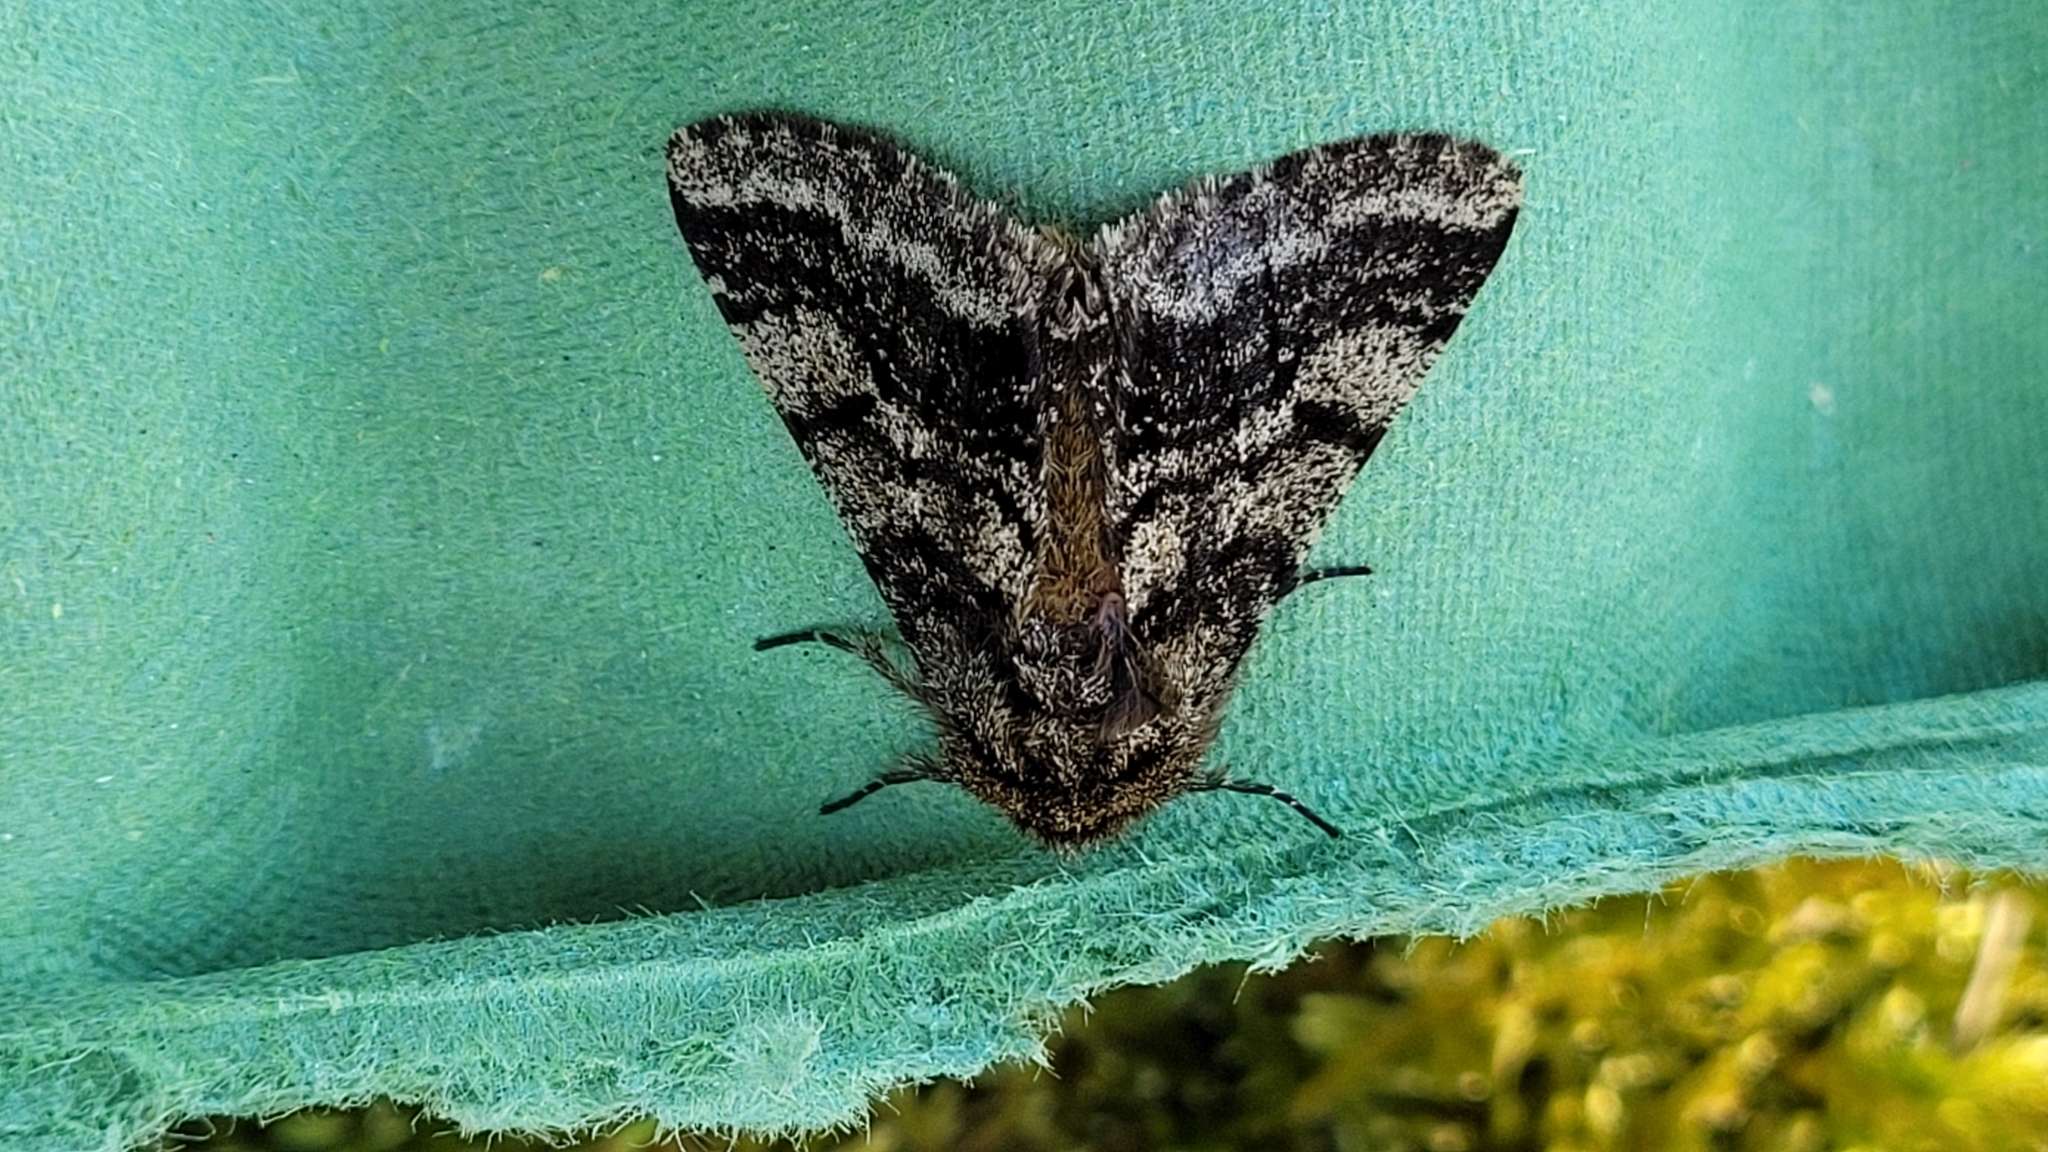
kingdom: Animalia
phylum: Arthropoda
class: Insecta
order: Lepidoptera
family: Geometridae
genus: Lycia
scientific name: Lycia hirtaria
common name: Brindled beauty
